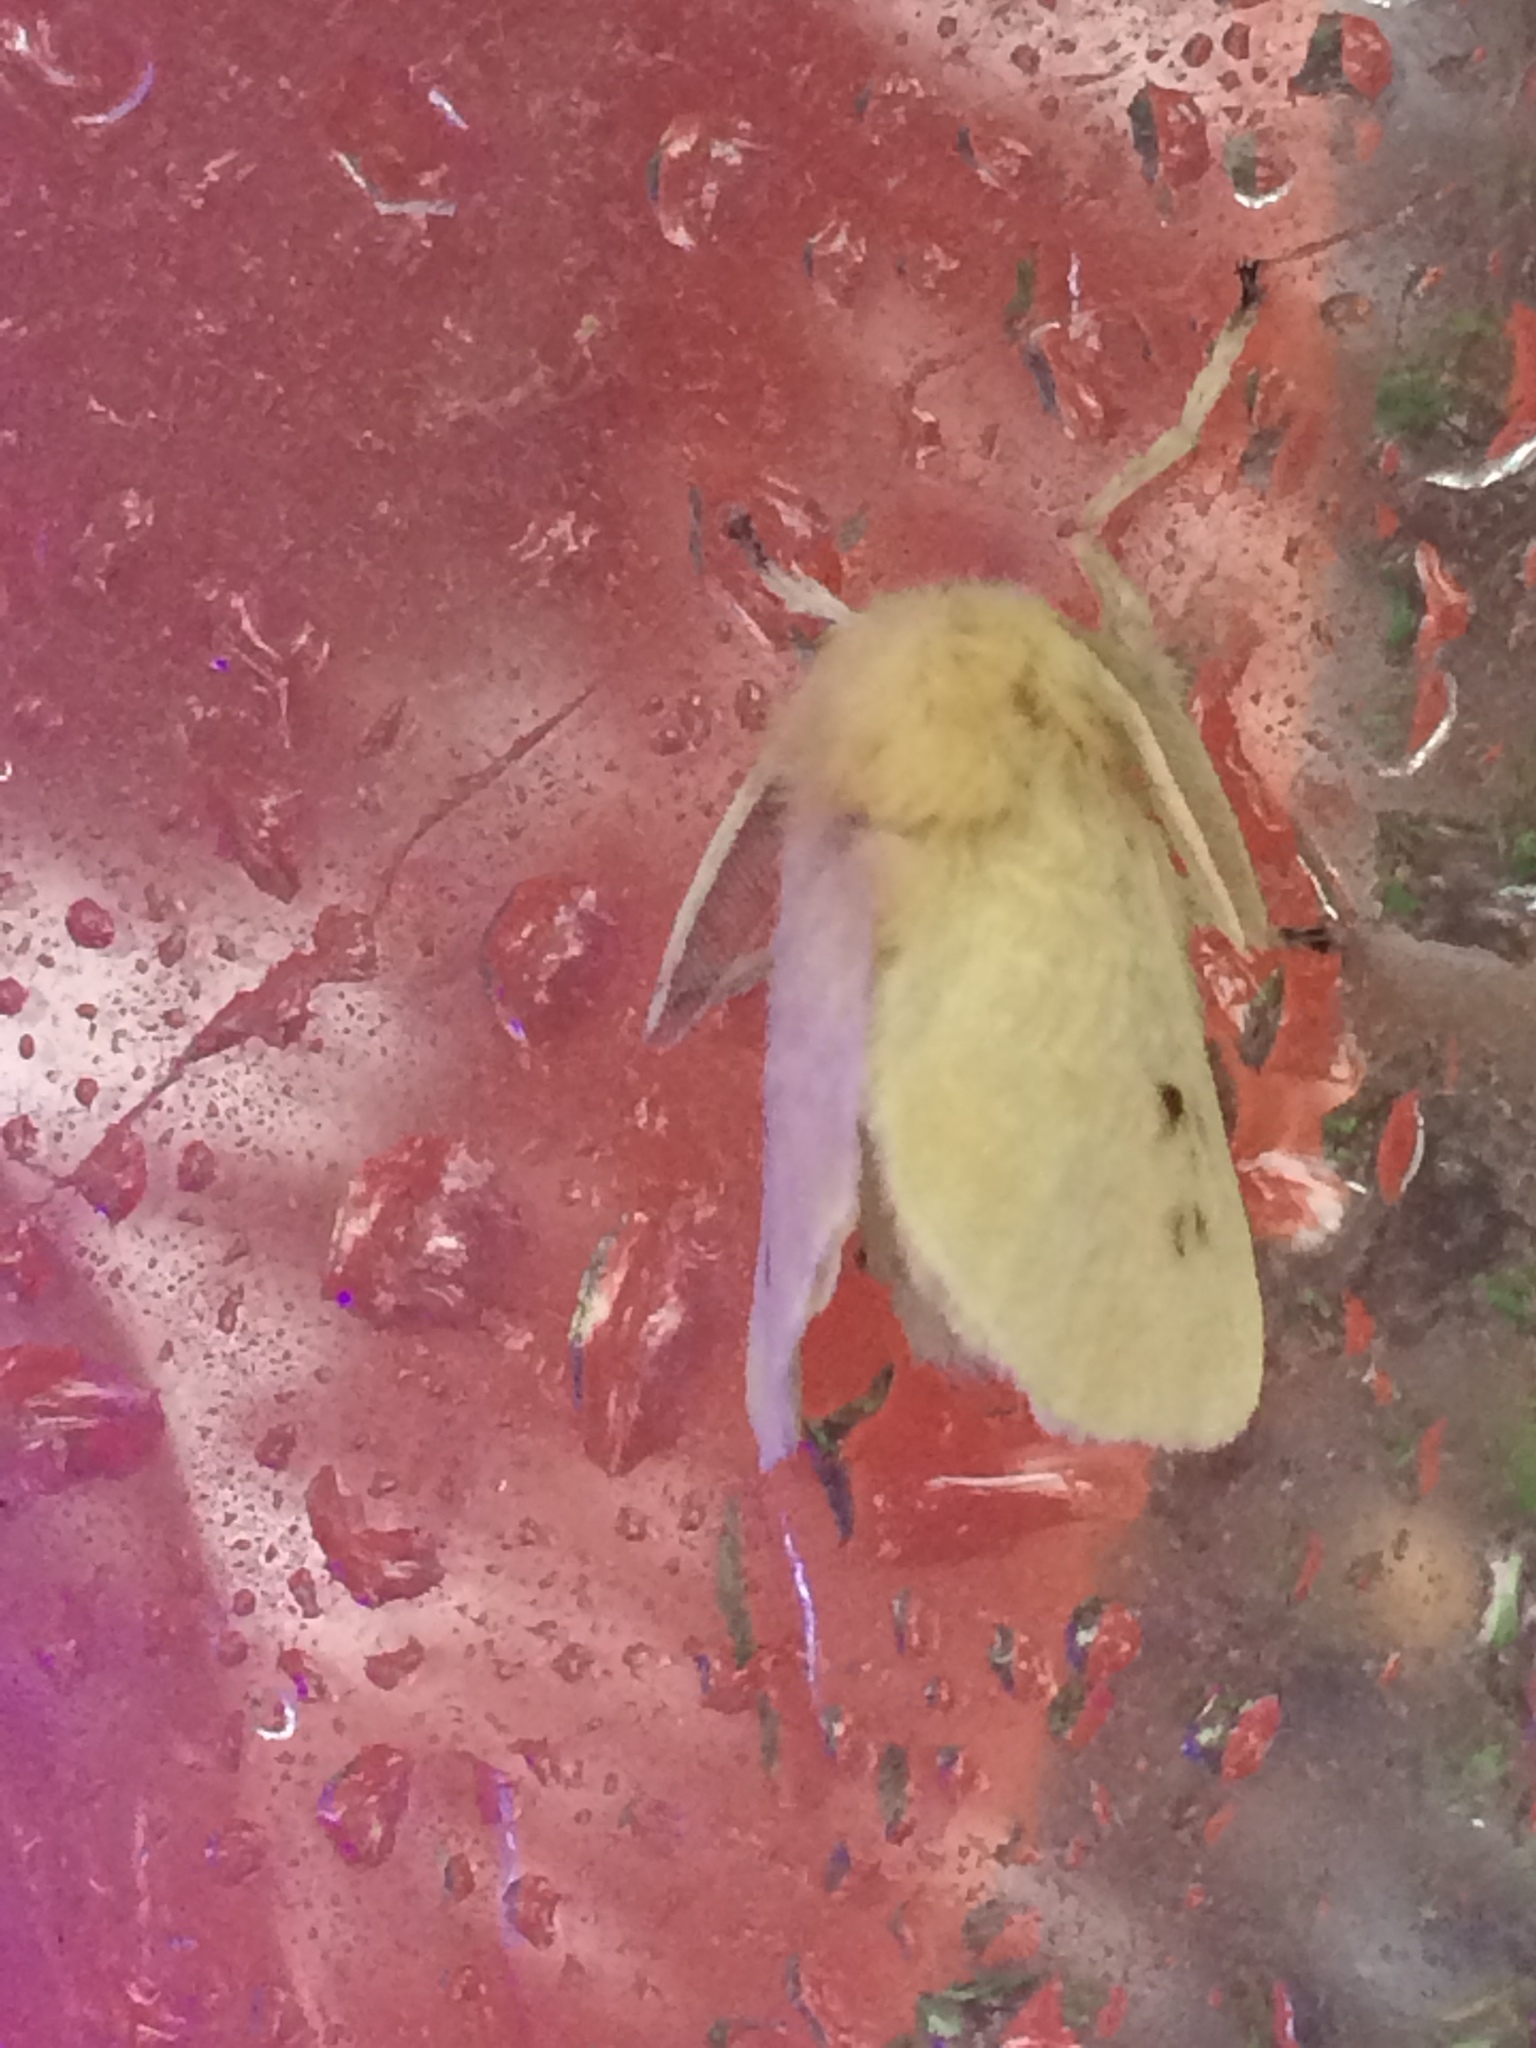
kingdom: Animalia
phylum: Arthropoda
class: Insecta
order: Lepidoptera
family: Megalopygidae
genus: Megalopyge
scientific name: Megalopyge lacyi
